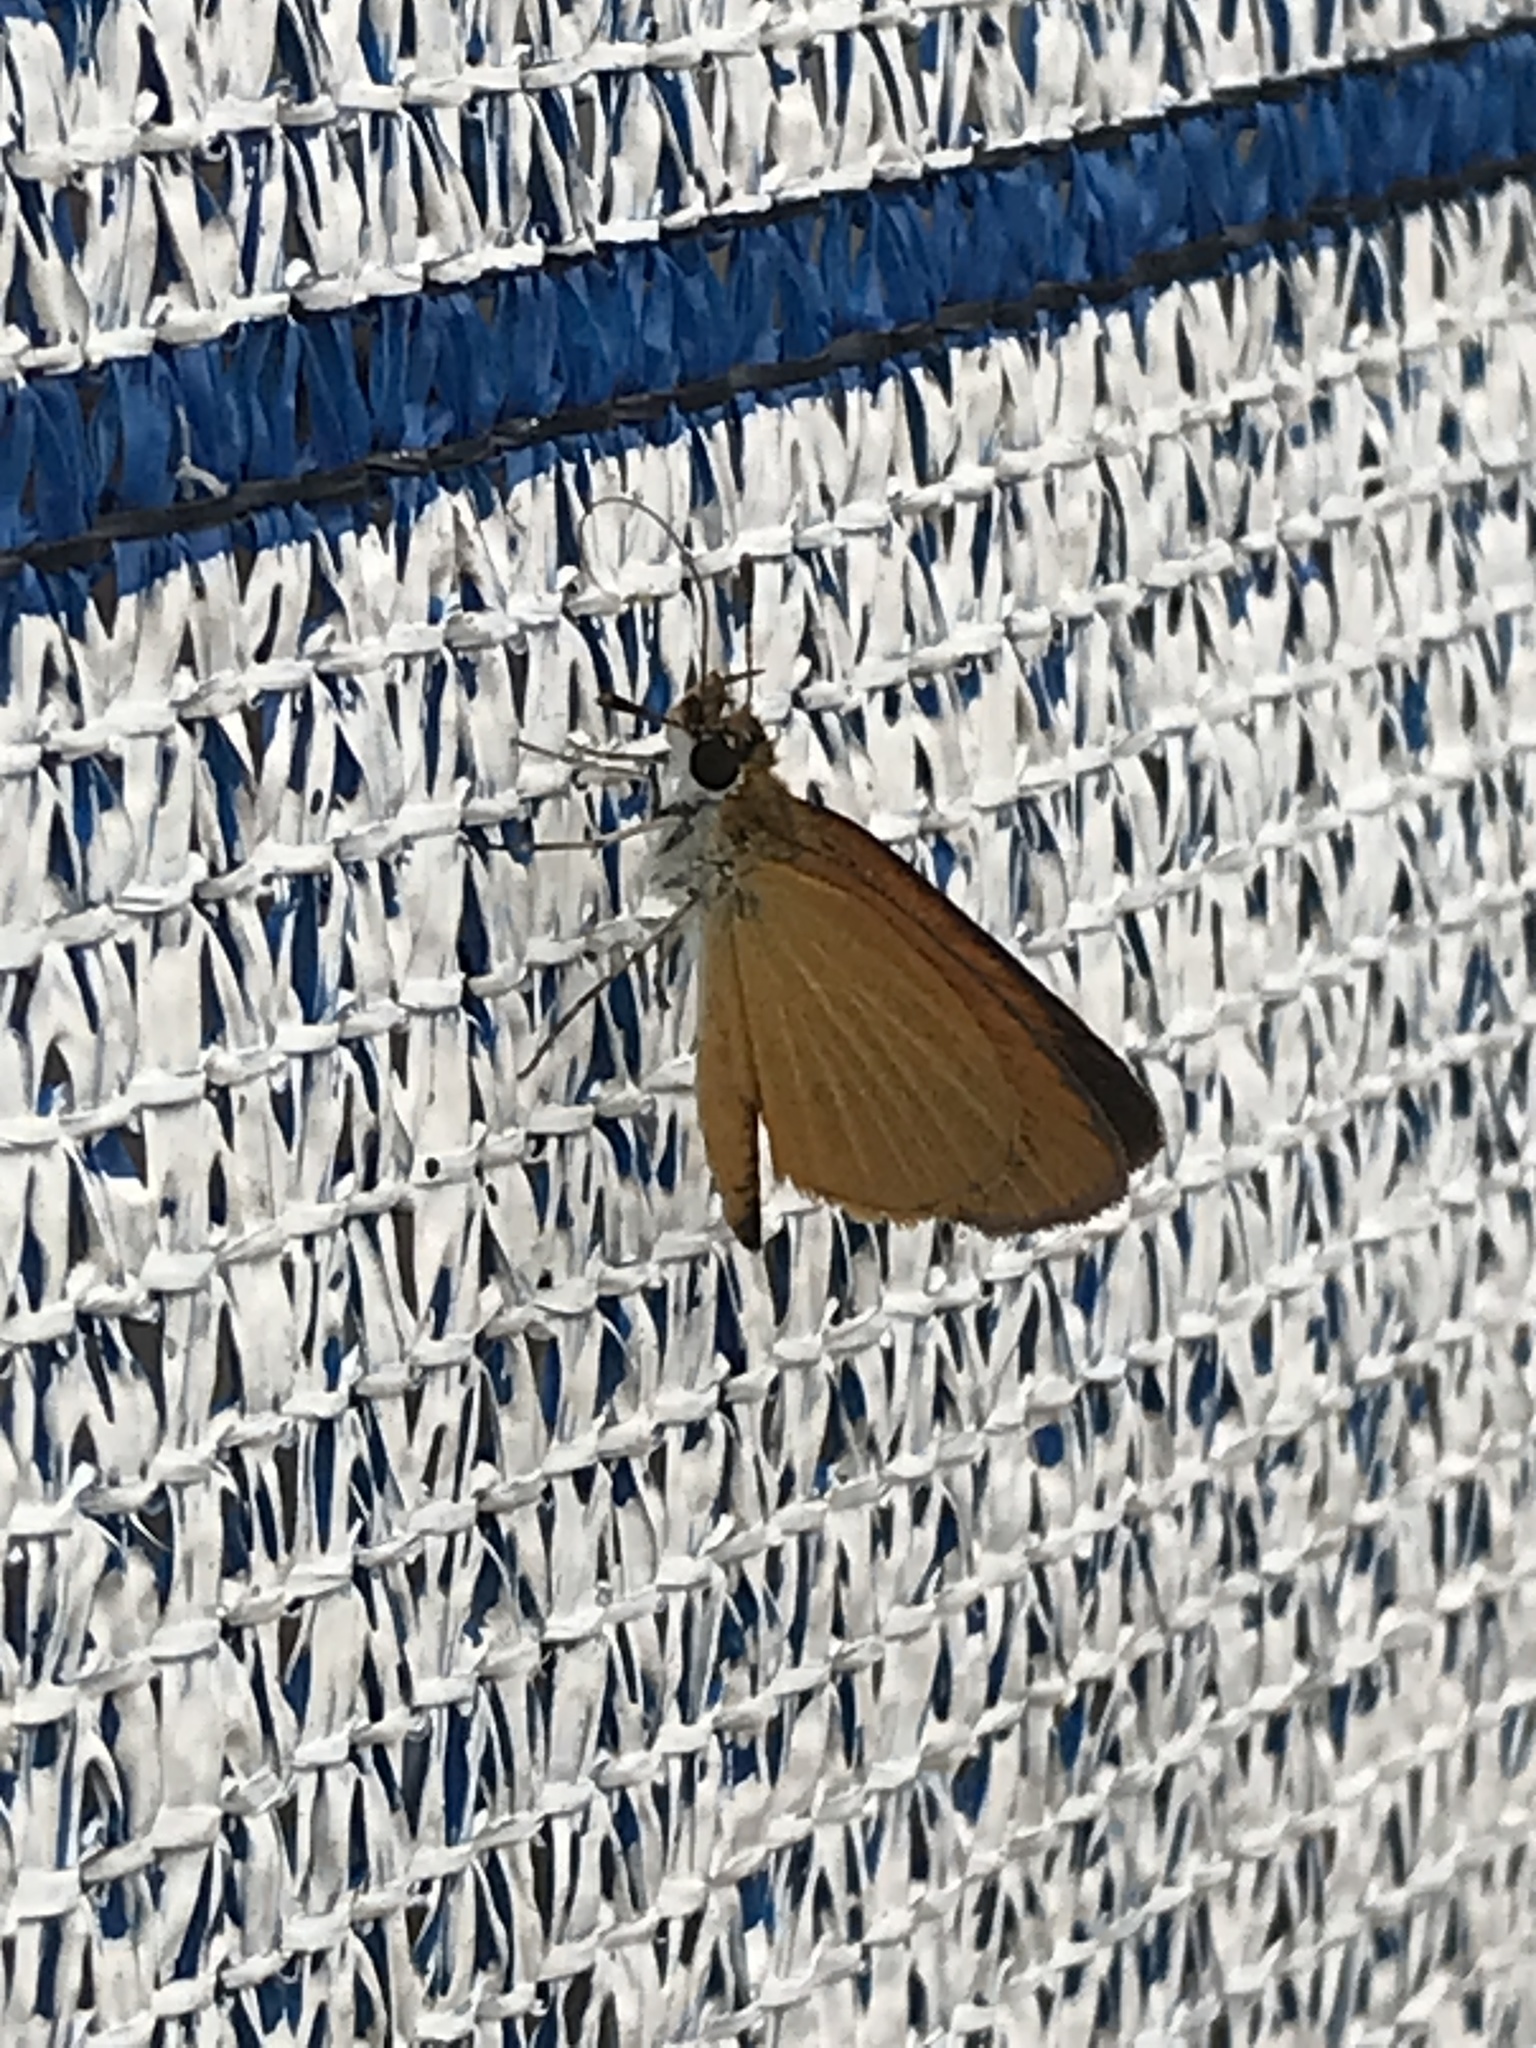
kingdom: Animalia
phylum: Arthropoda
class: Insecta
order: Lepidoptera
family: Hesperiidae
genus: Ancyloxypha
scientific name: Ancyloxypha numitor
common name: Least skipper
